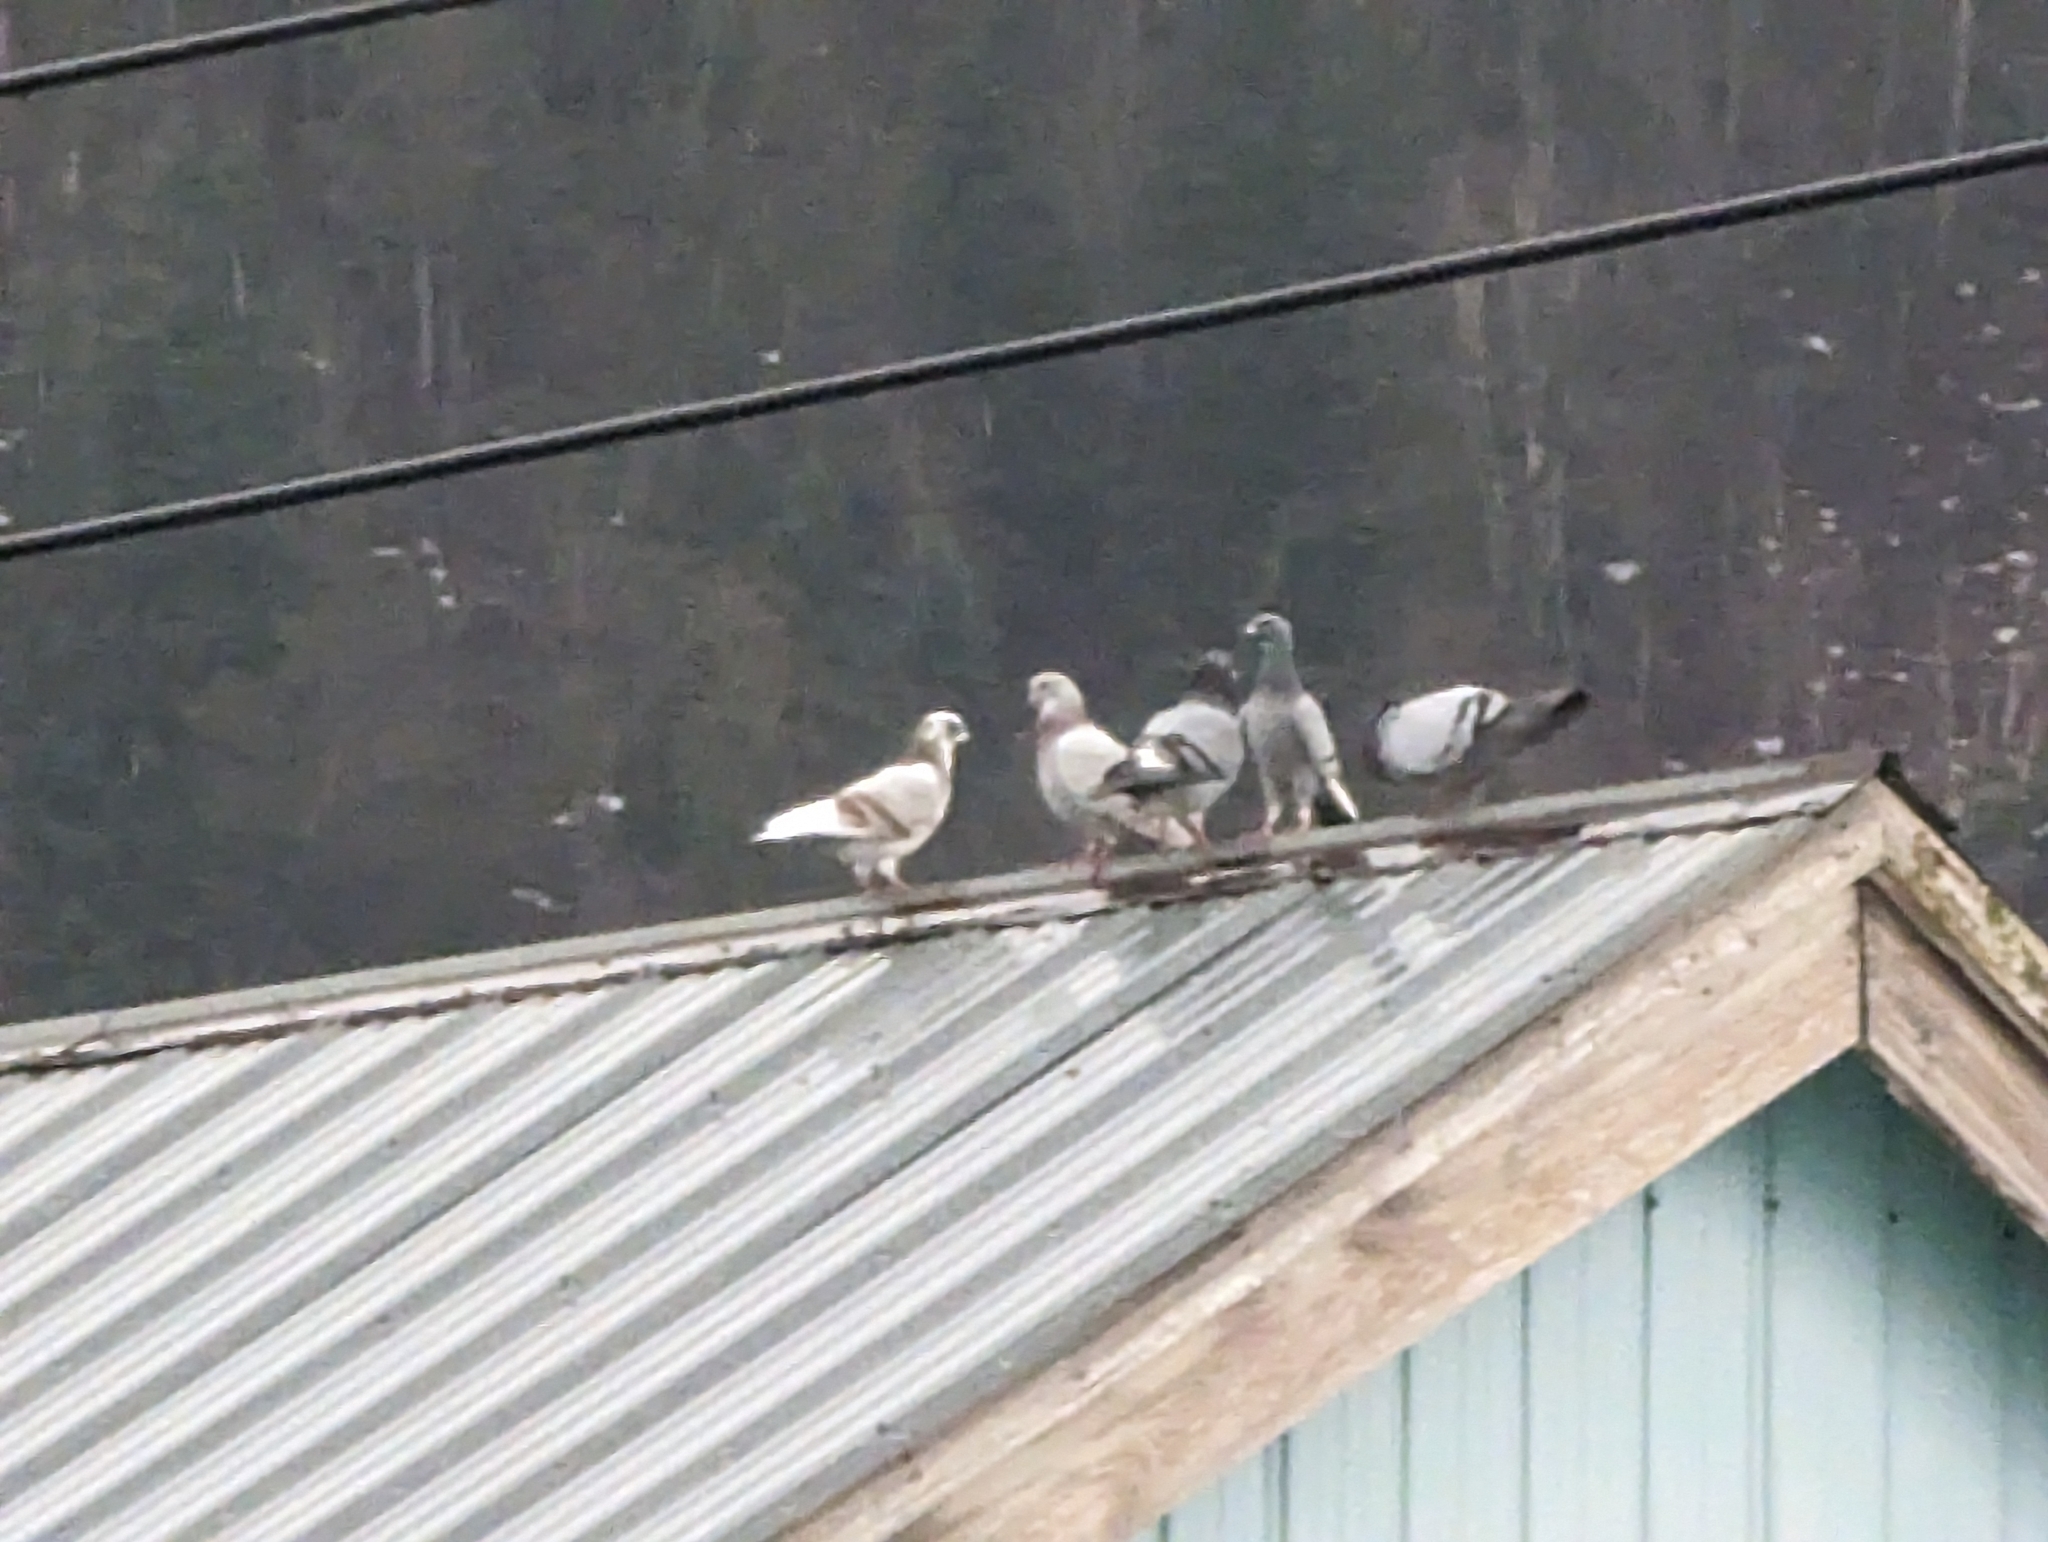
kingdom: Animalia
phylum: Chordata
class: Aves
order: Columbiformes
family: Columbidae
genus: Columba
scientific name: Columba livia
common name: Rock pigeon
